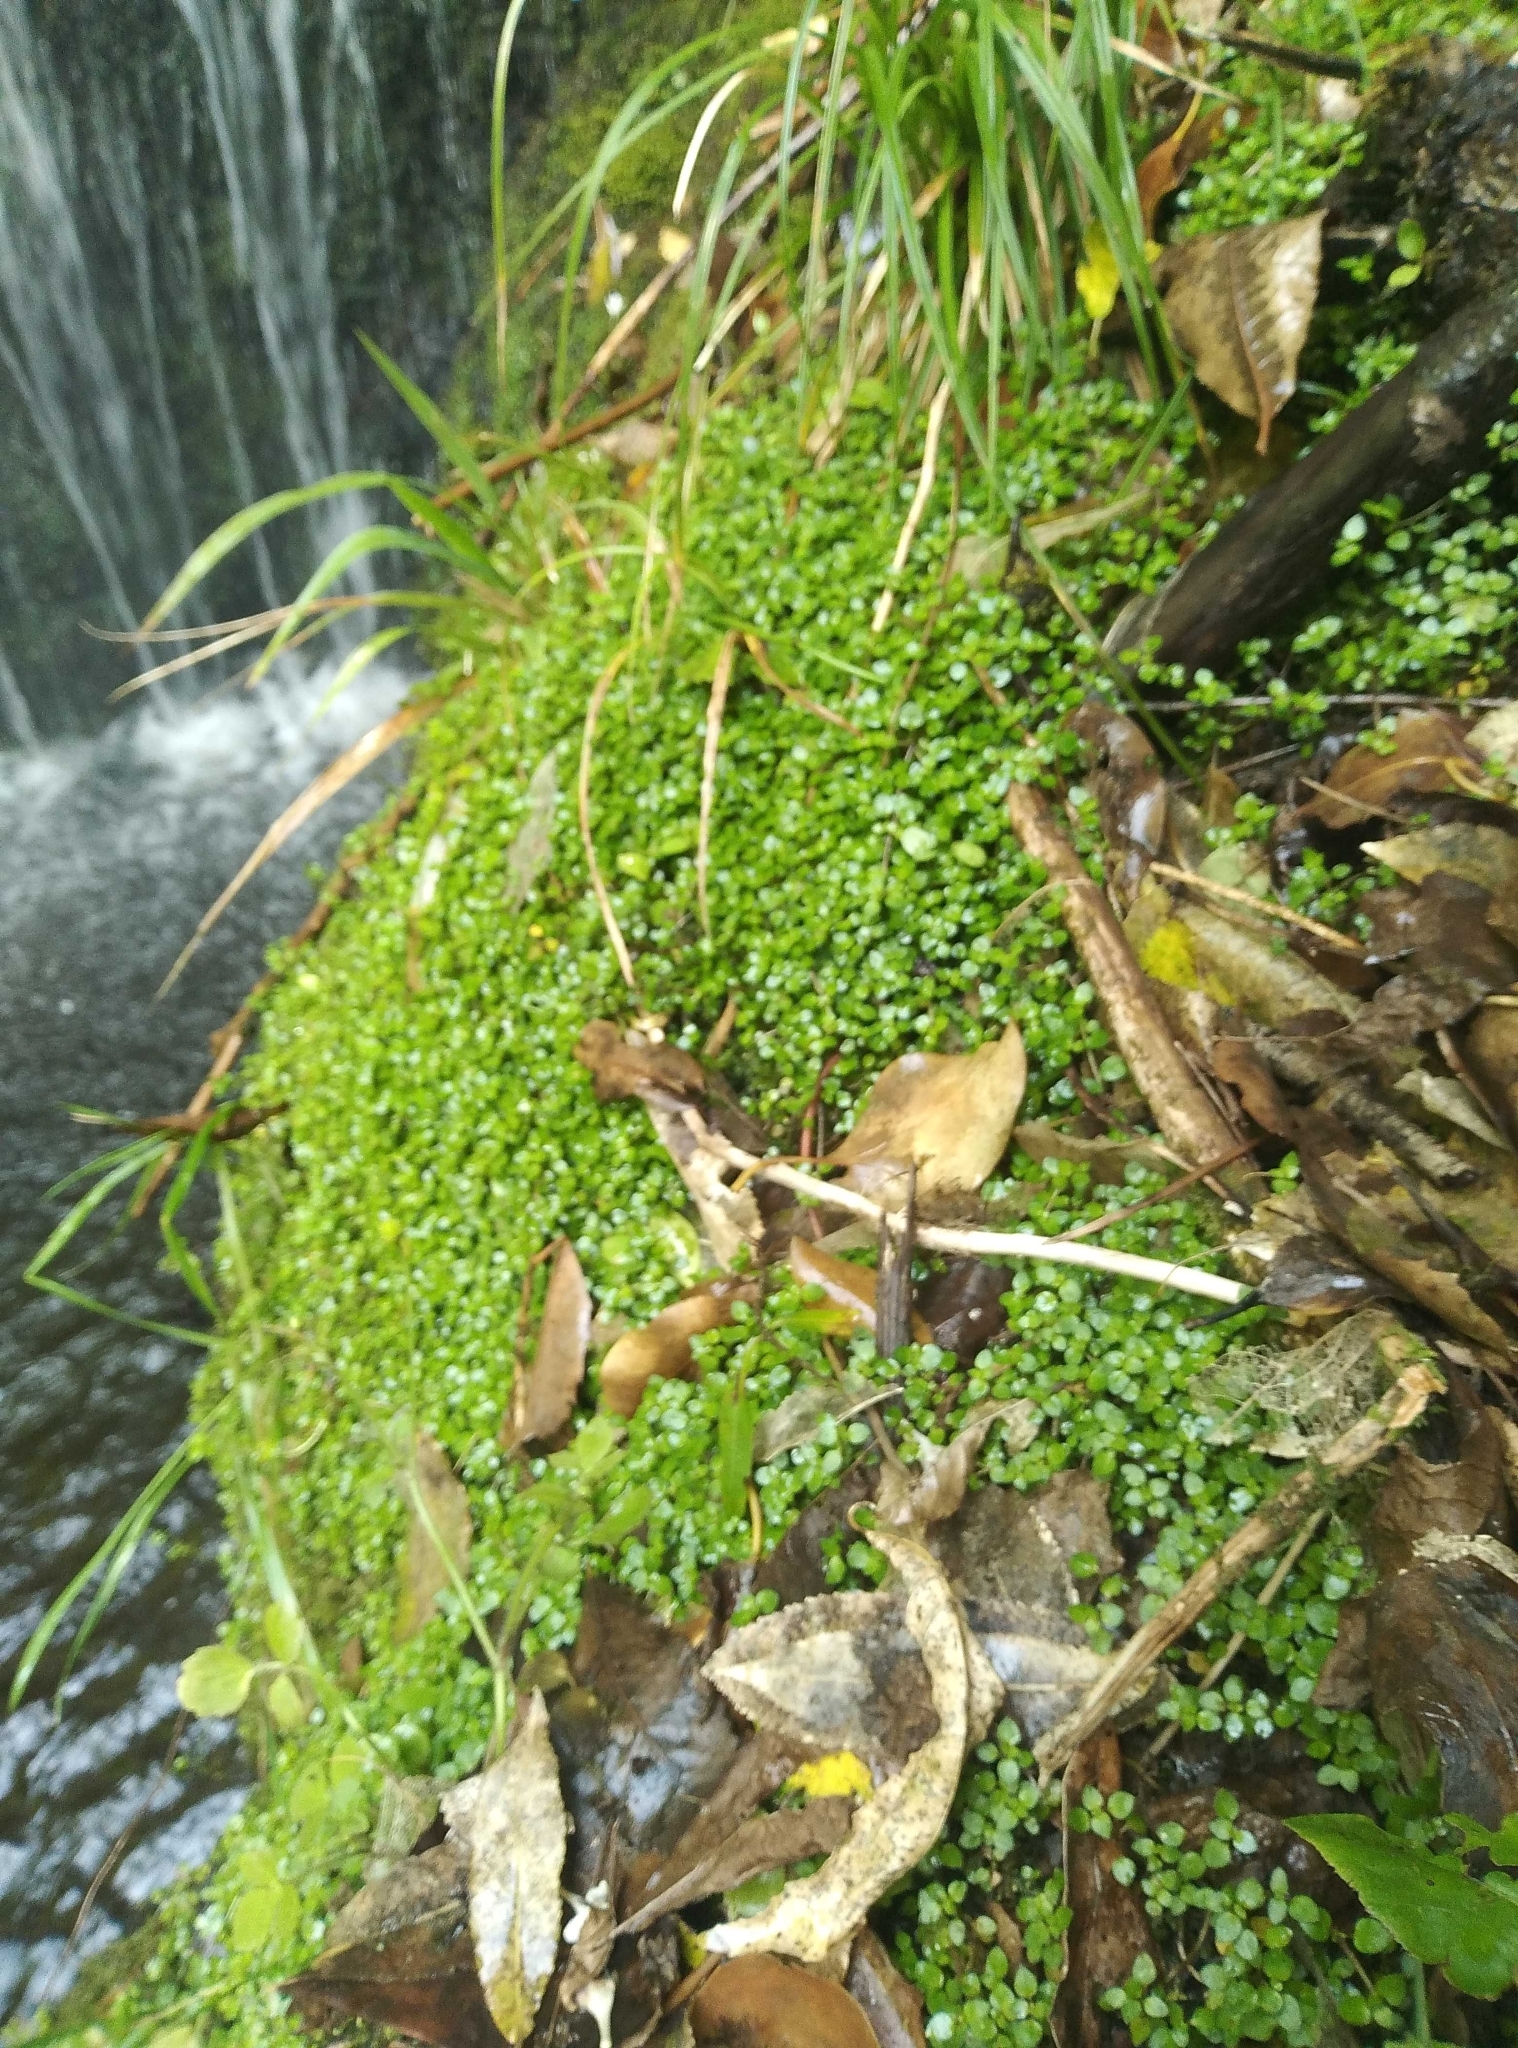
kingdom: Plantae
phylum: Tracheophyta
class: Magnoliopsida
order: Myrtales
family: Onagraceae
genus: Epilobium
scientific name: Epilobium pedunculare
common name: Rockery willowherb
